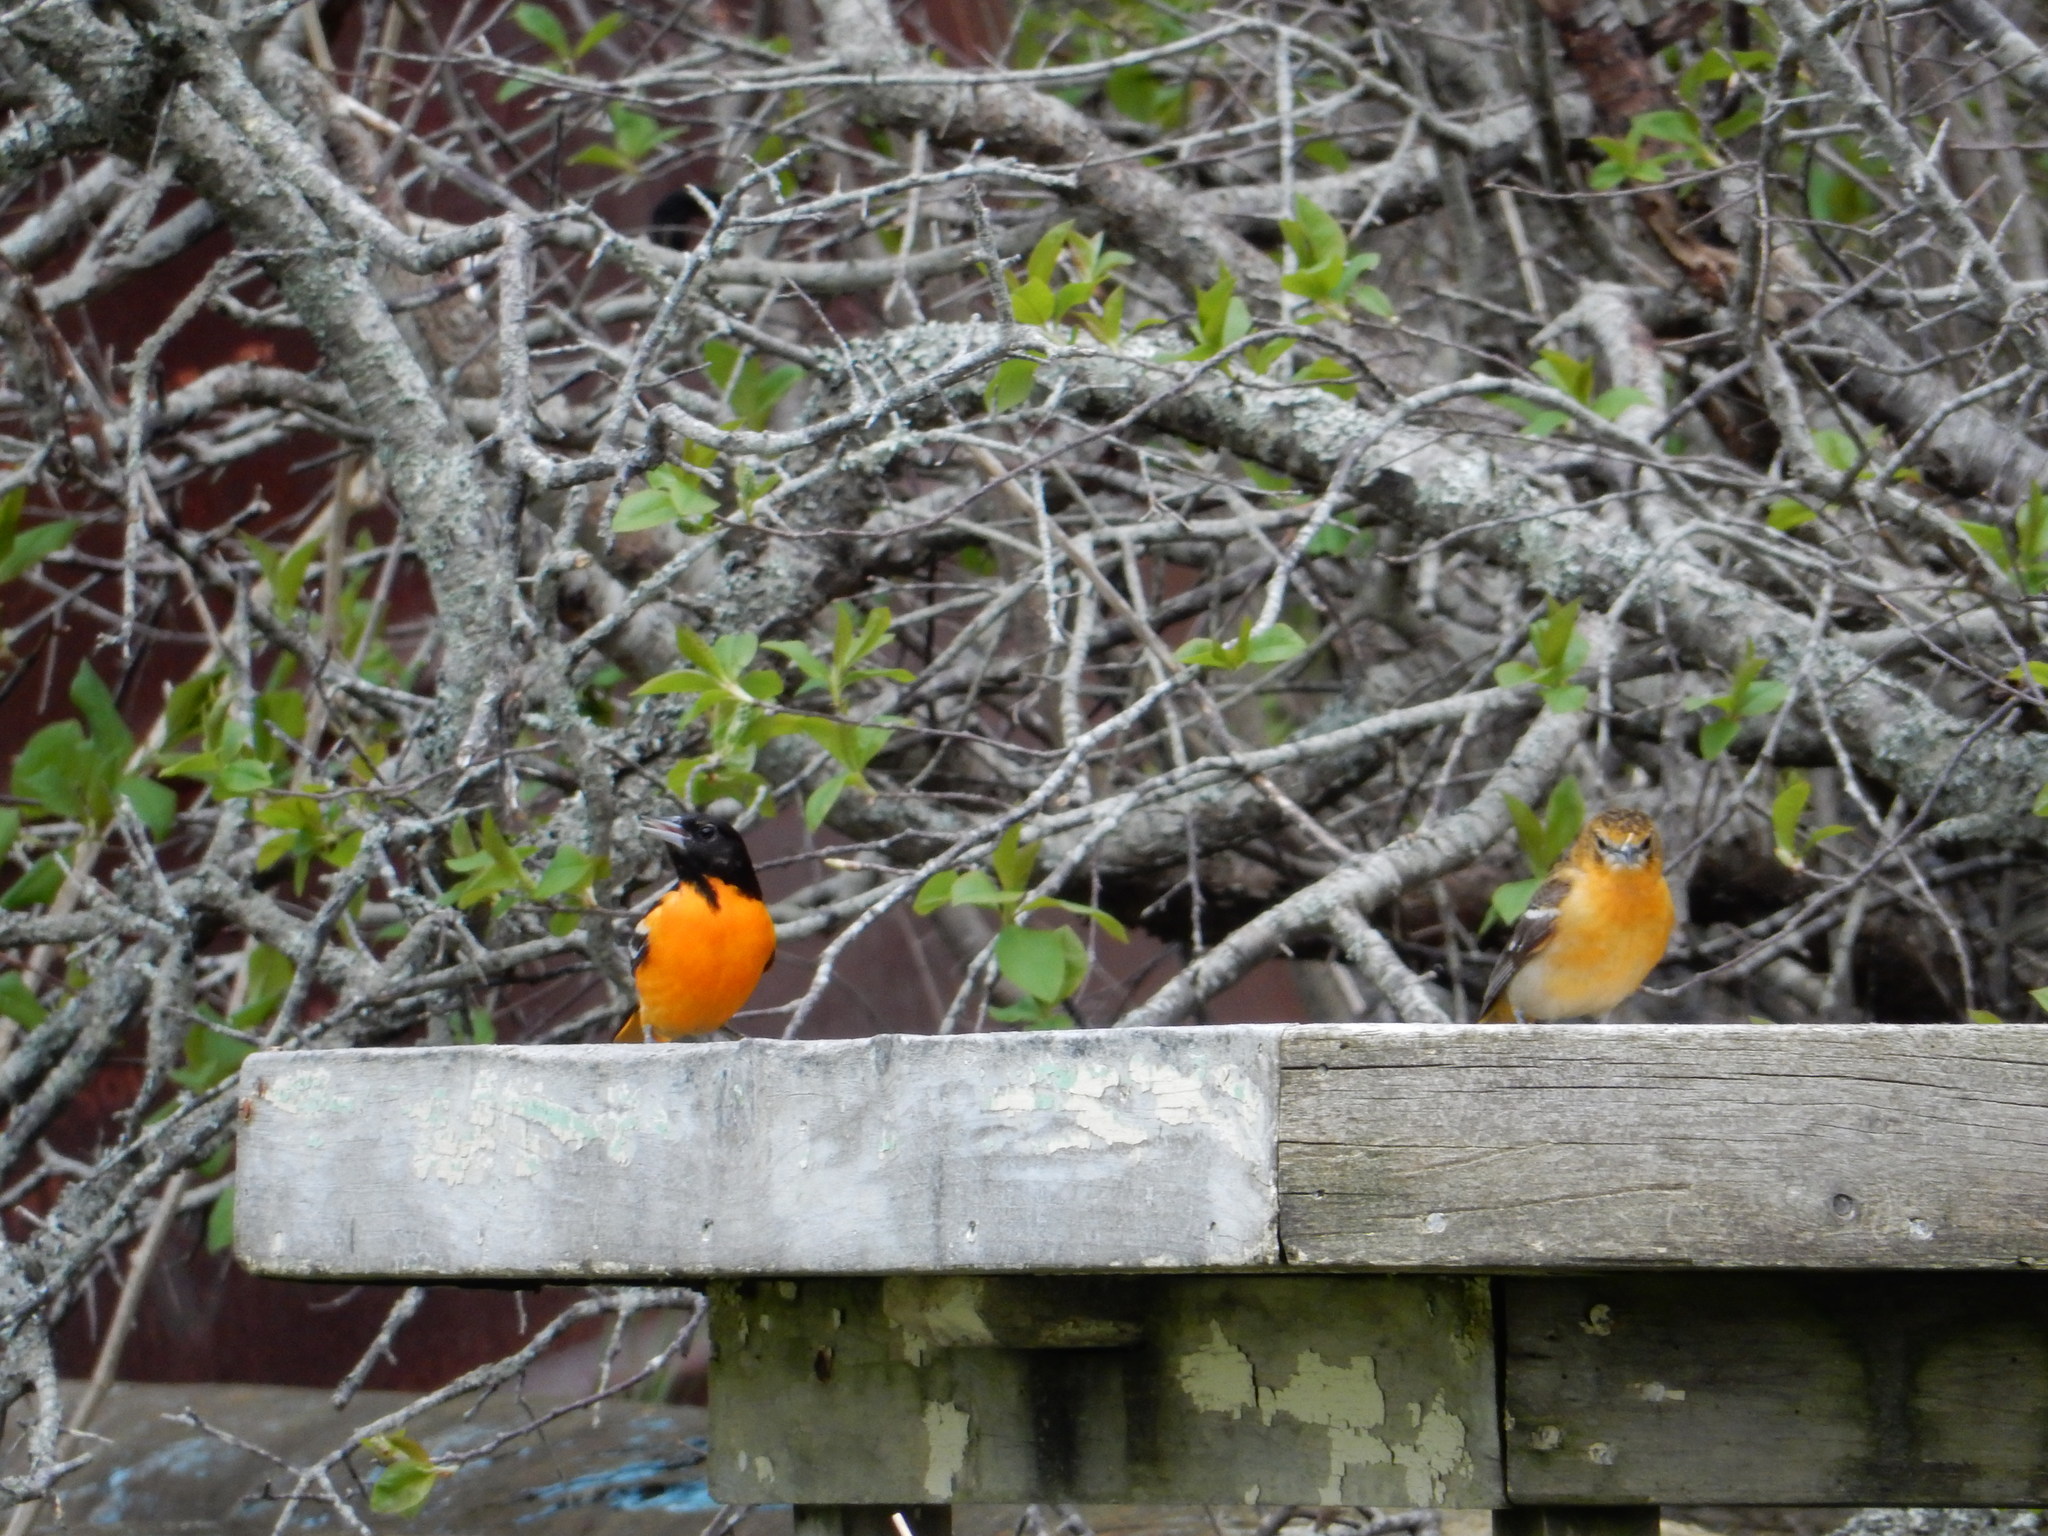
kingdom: Animalia
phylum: Chordata
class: Aves
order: Passeriformes
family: Icteridae
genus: Icterus
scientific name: Icterus galbula
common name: Baltimore oriole
